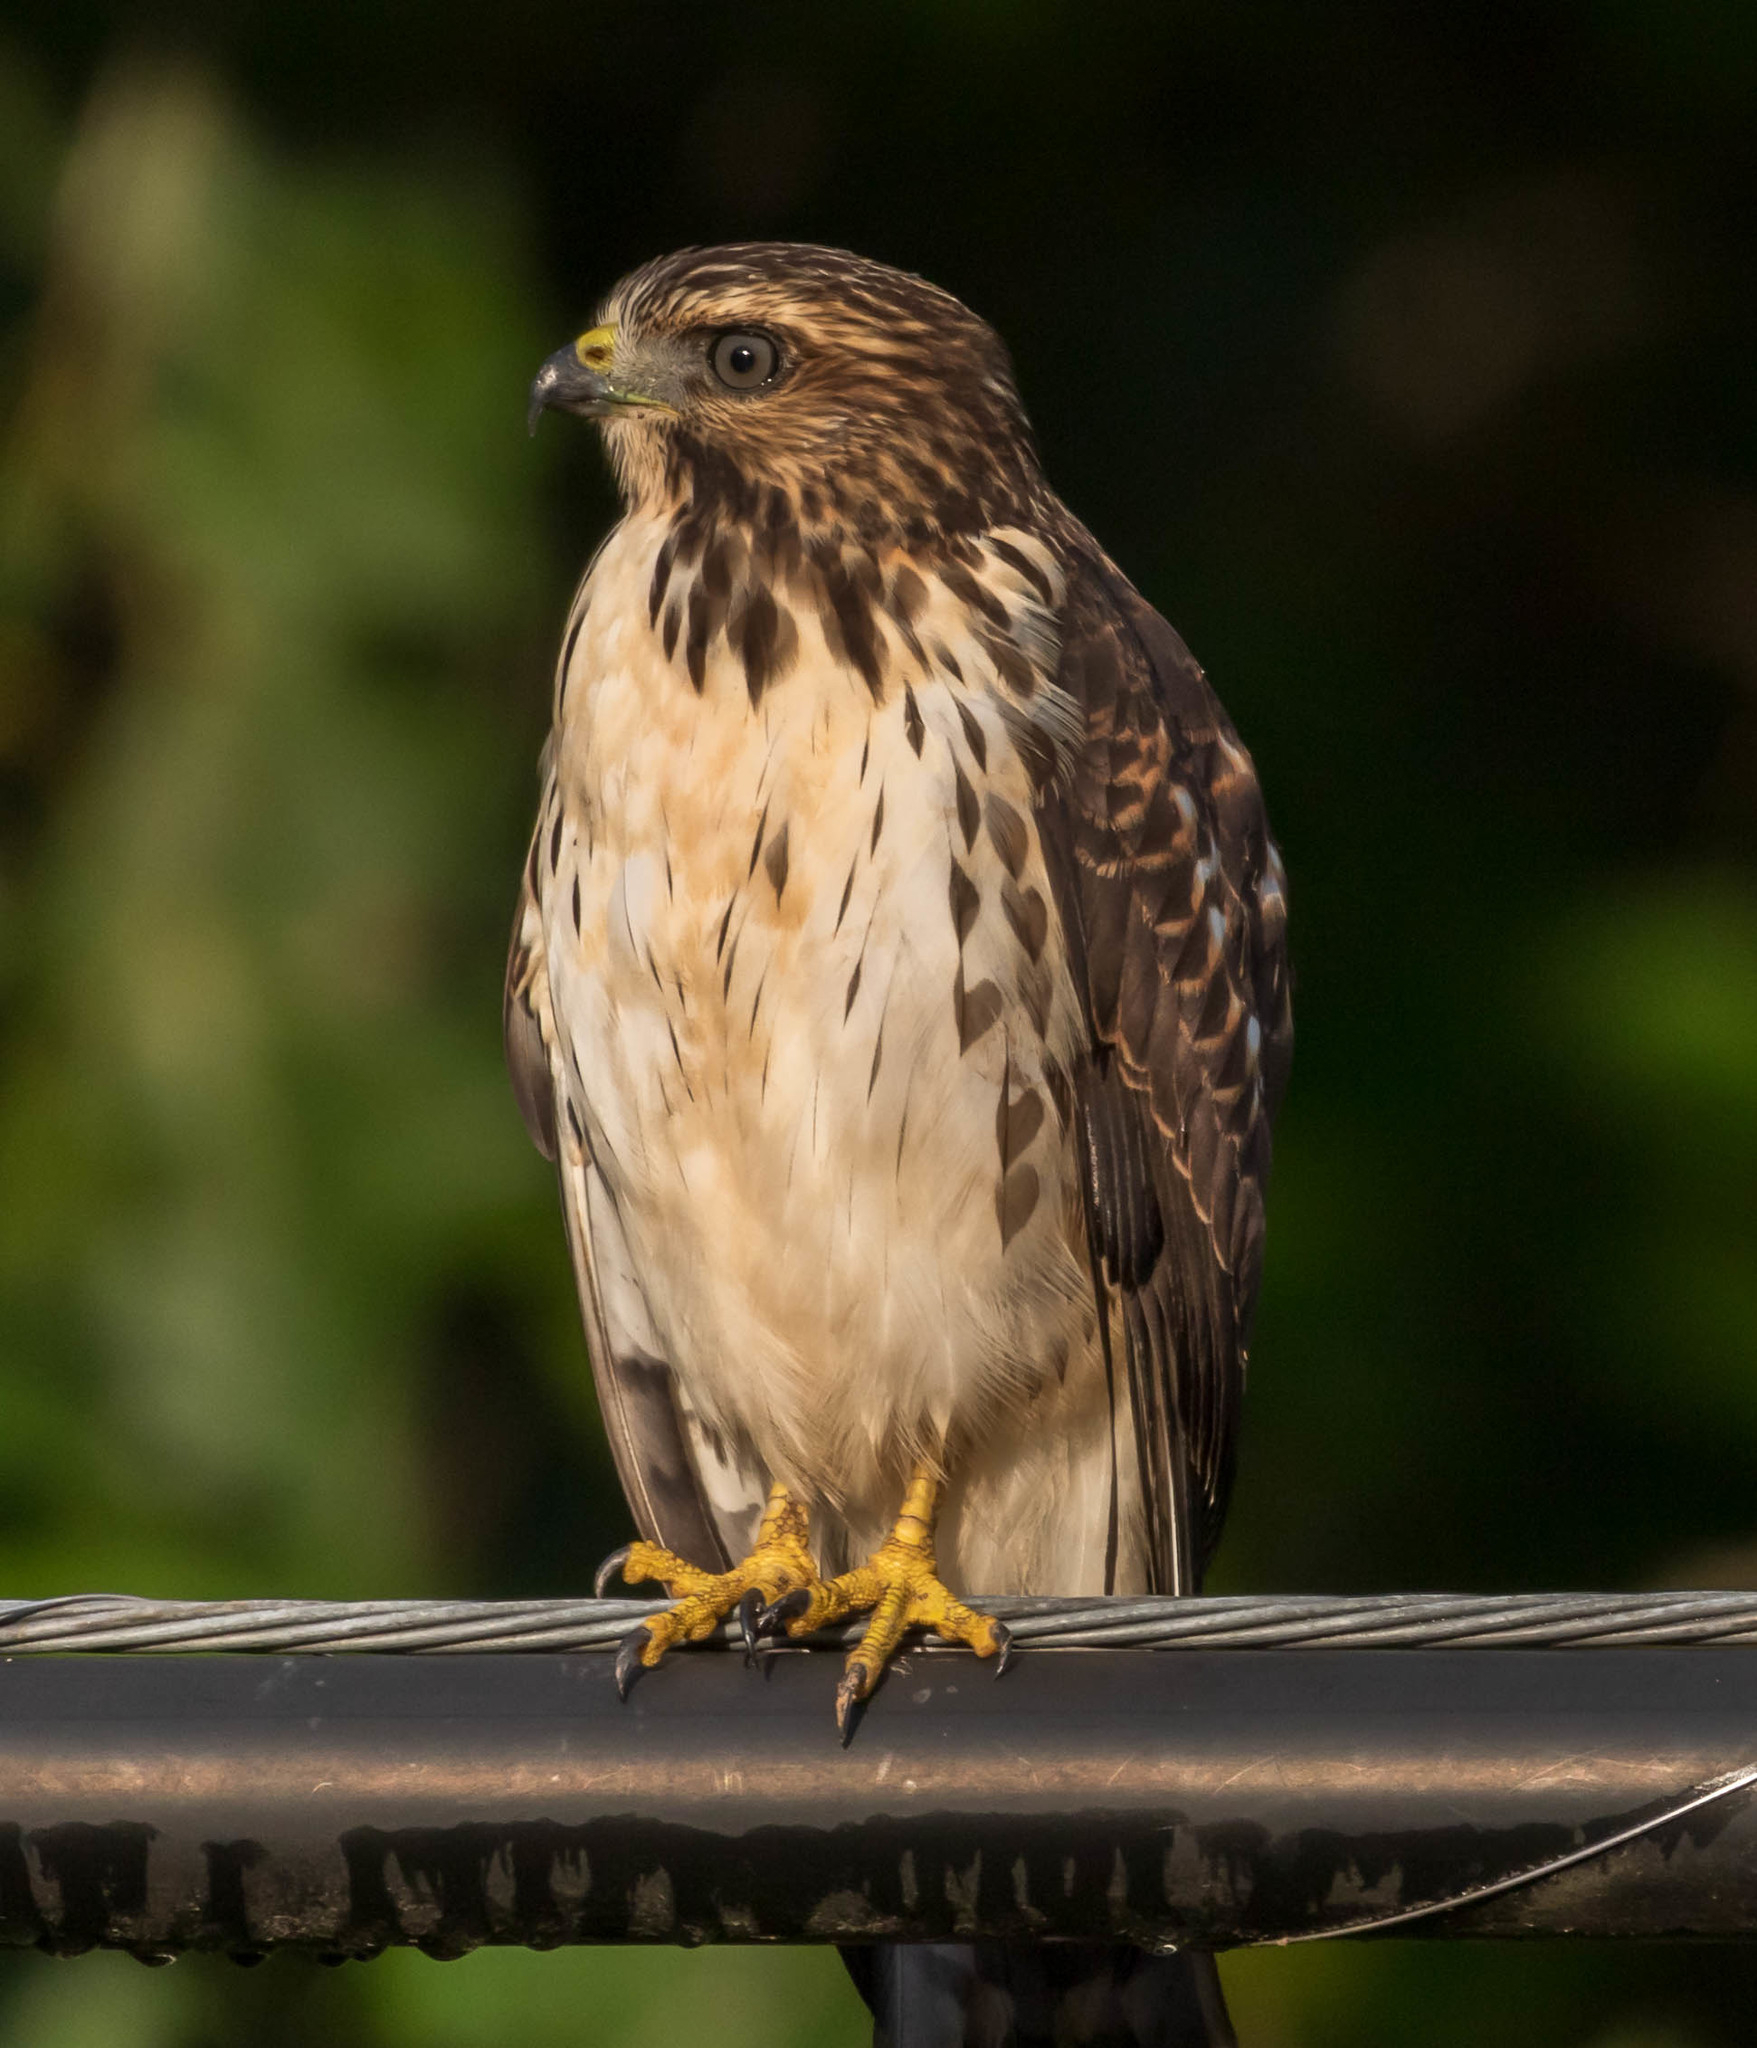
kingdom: Animalia
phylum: Chordata
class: Aves
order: Accipitriformes
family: Accipitridae
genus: Buteo
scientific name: Buteo platypterus
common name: Broad-winged hawk
